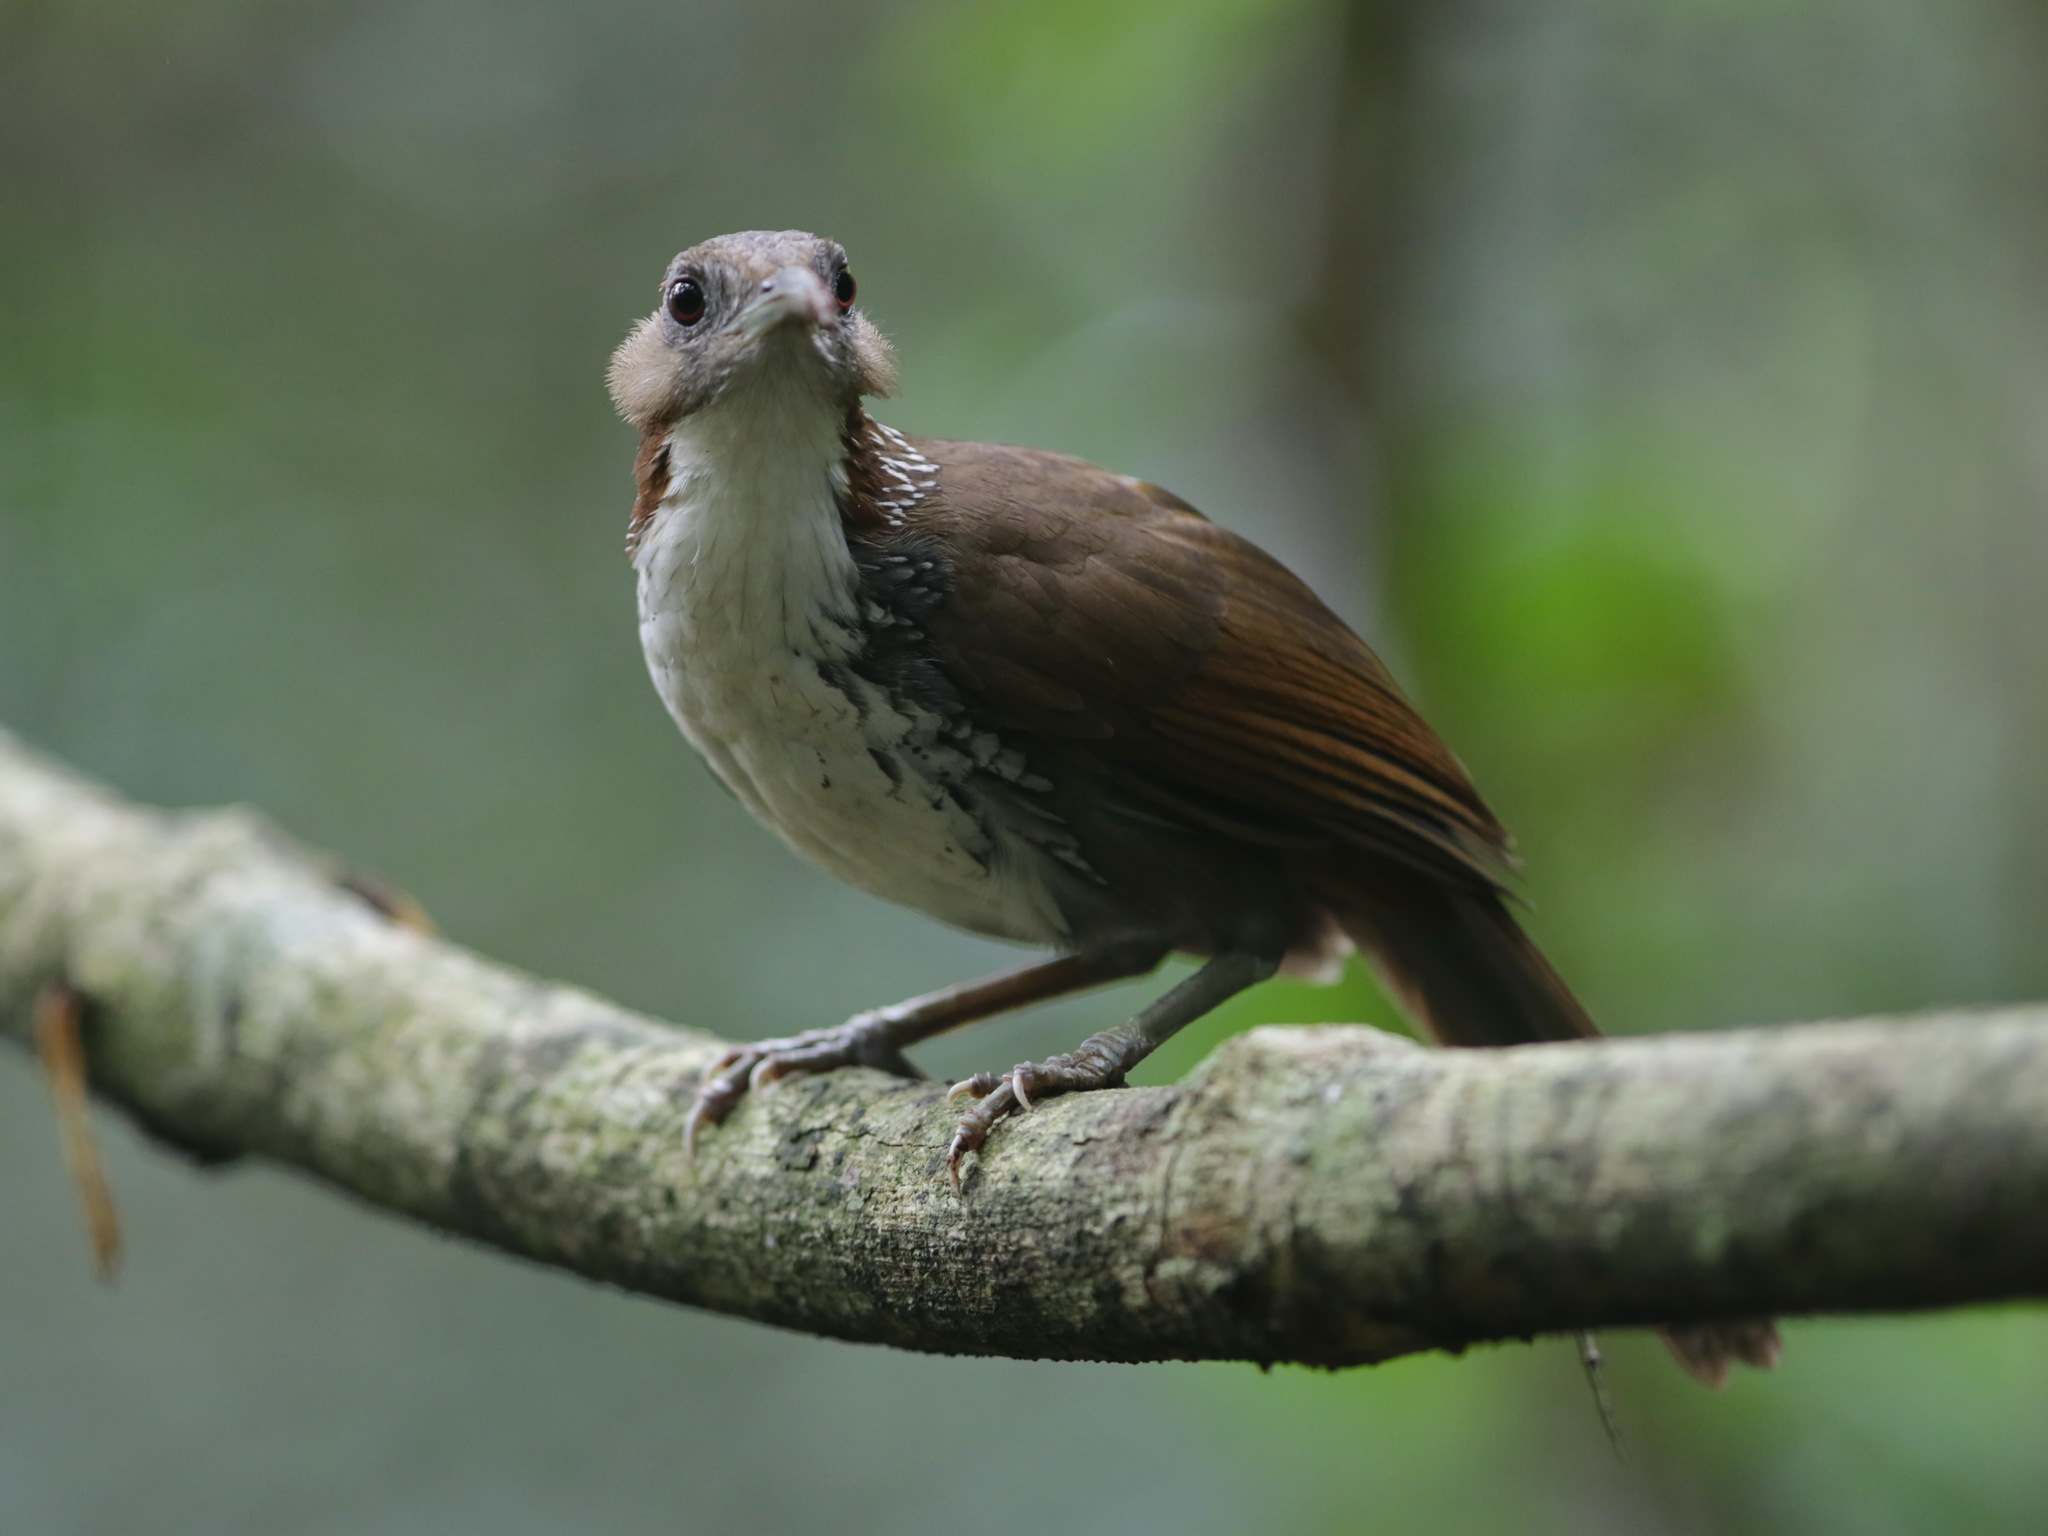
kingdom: Animalia
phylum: Chordata
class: Aves
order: Passeriformes
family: Timaliidae
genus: Pomatorhinus
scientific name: Pomatorhinus hypoleucos
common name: Large scimitar babbler
